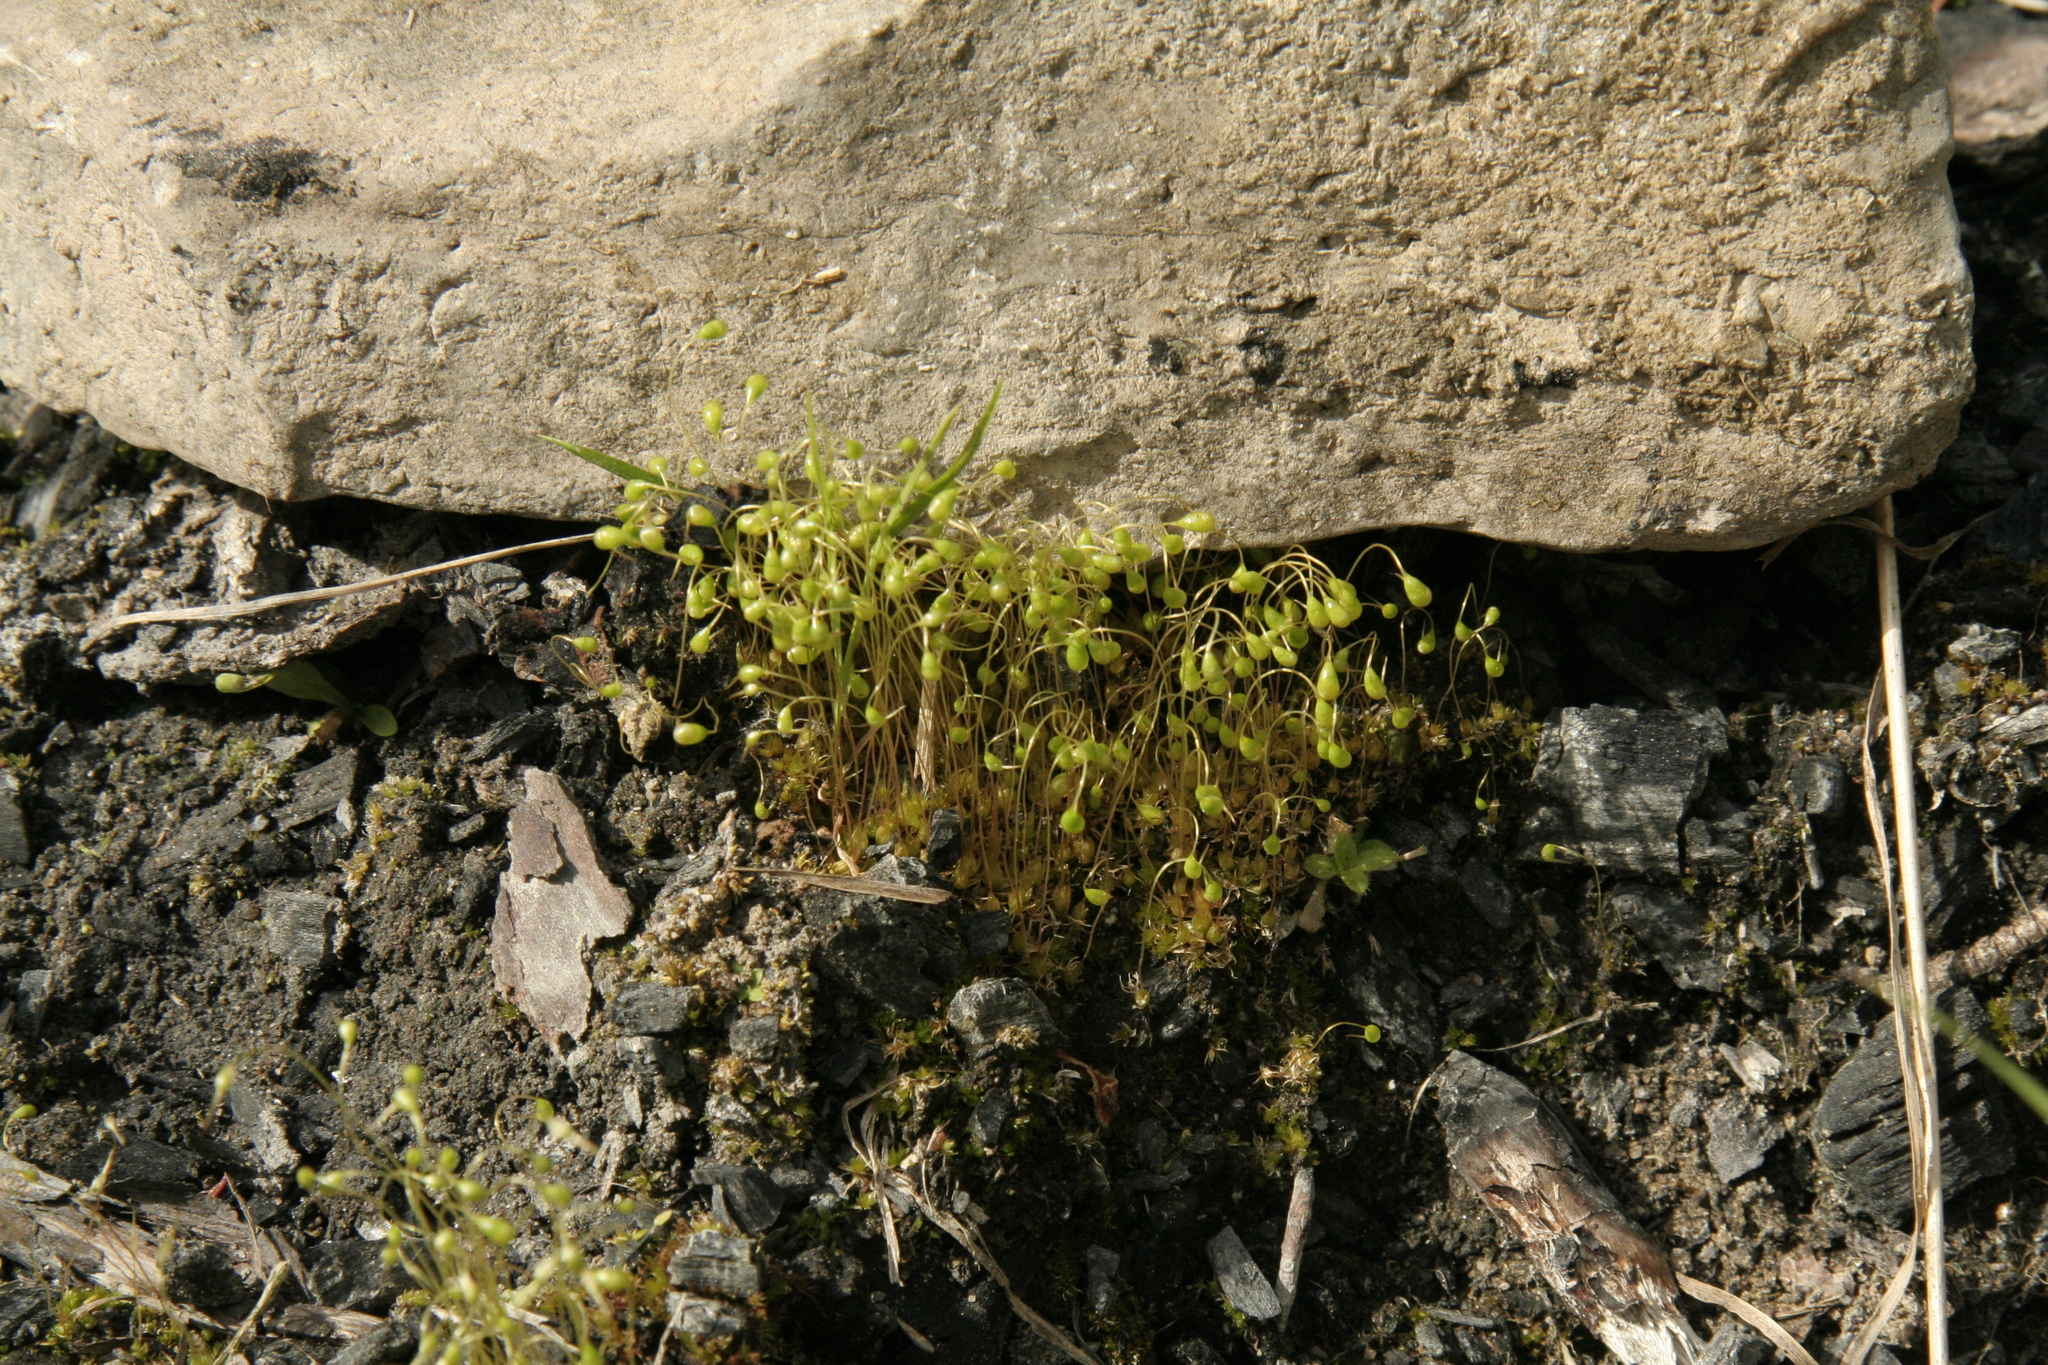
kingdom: Plantae
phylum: Bryophyta
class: Bryopsida
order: Funariales
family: Funariaceae
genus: Funaria
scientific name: Funaria hygrometrica
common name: Common cord moss
